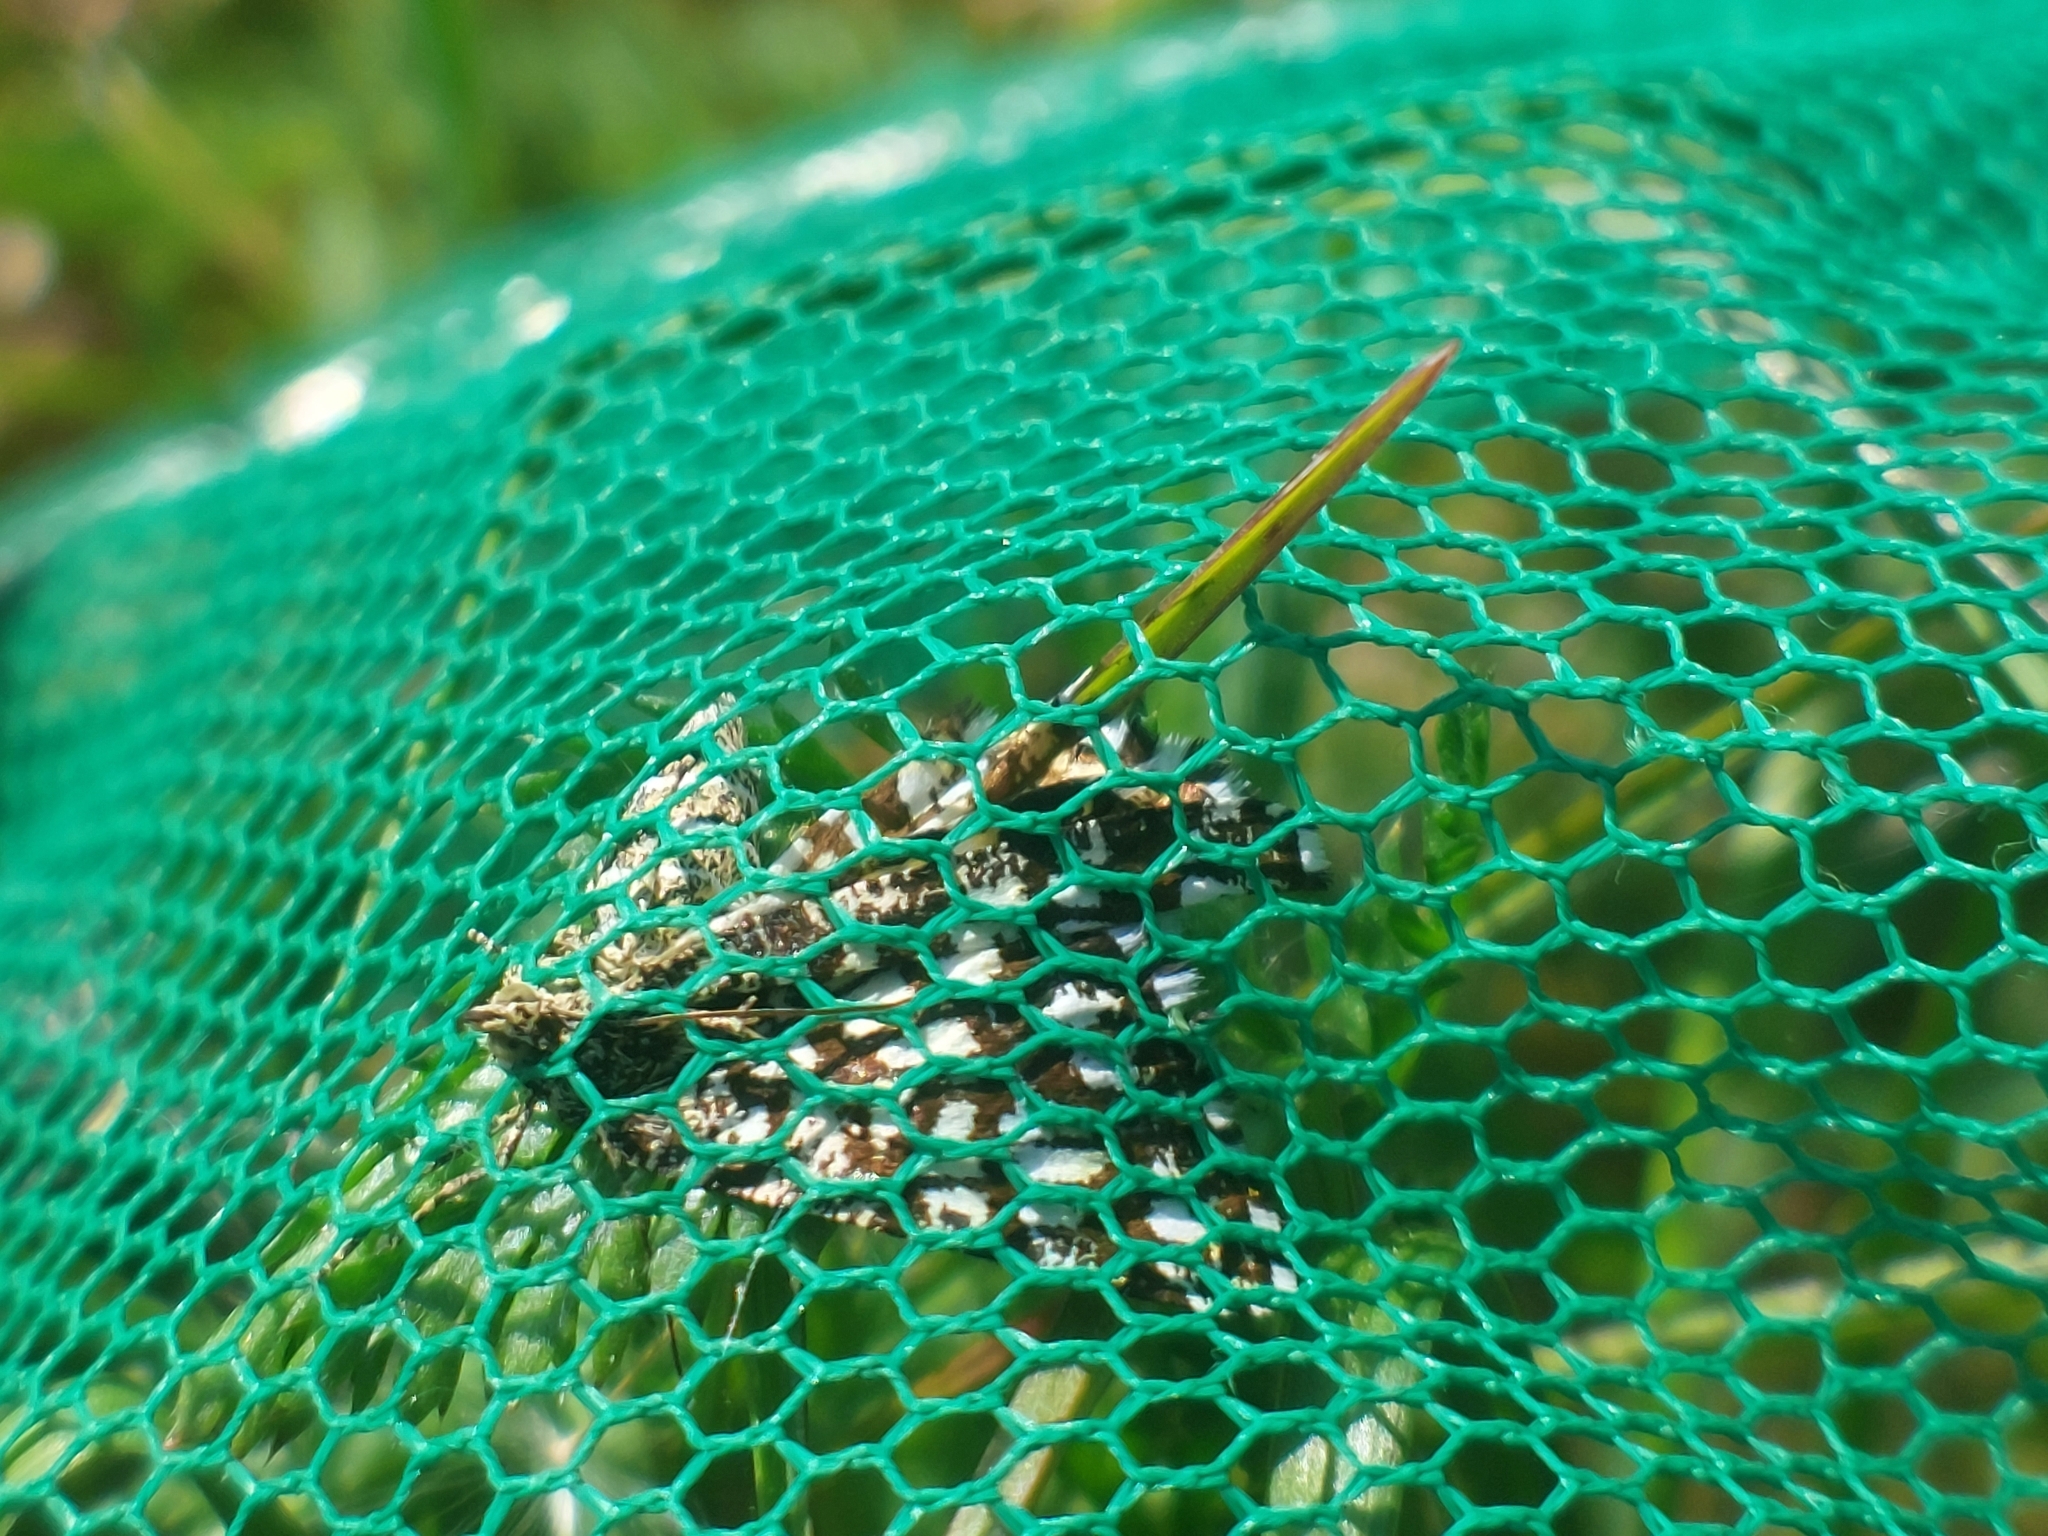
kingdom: Animalia
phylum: Arthropoda
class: Insecta
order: Lepidoptera
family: Geometridae
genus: Chiasmia
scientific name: Chiasmia clathrata
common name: Latticed heath
